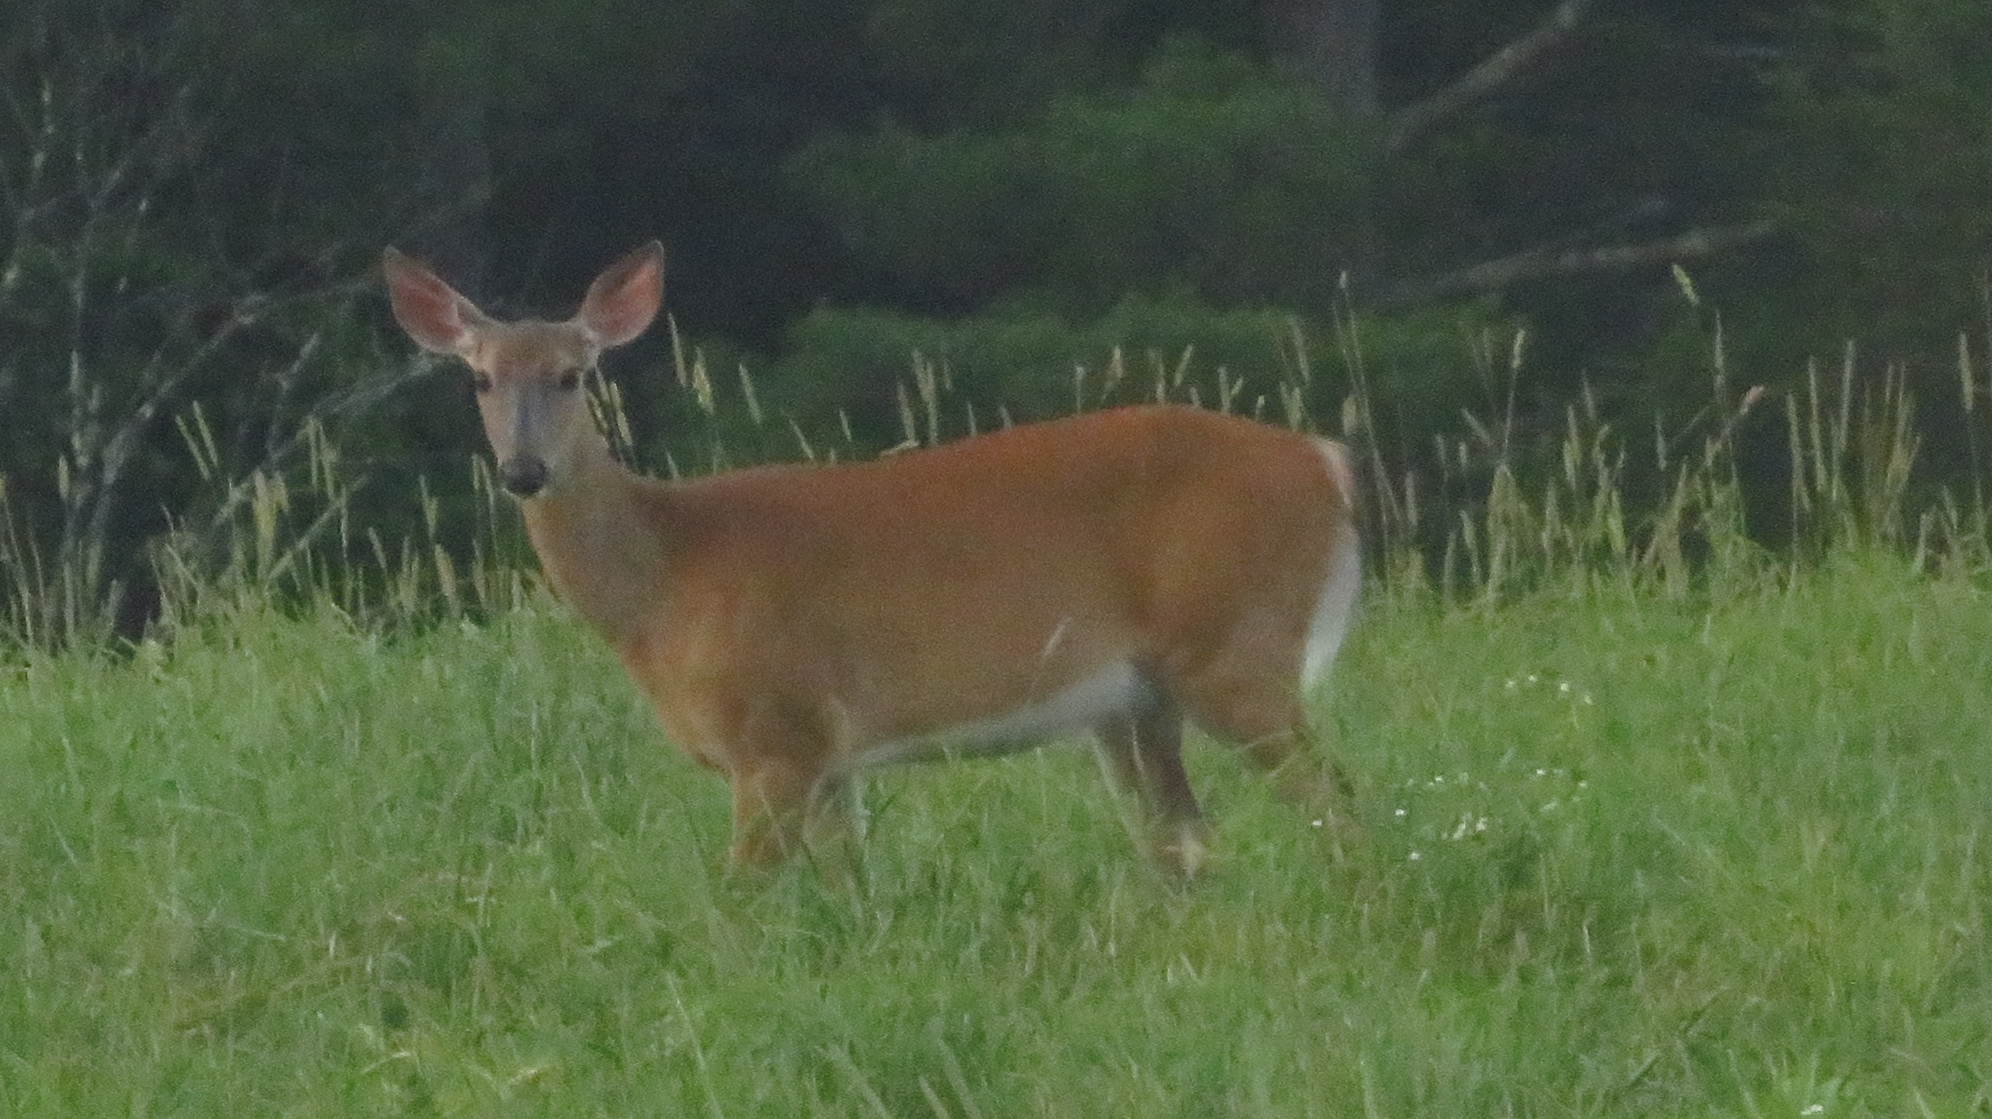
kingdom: Animalia
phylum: Chordata
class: Mammalia
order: Artiodactyla
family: Cervidae
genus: Odocoileus
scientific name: Odocoileus virginianus
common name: White-tailed deer
